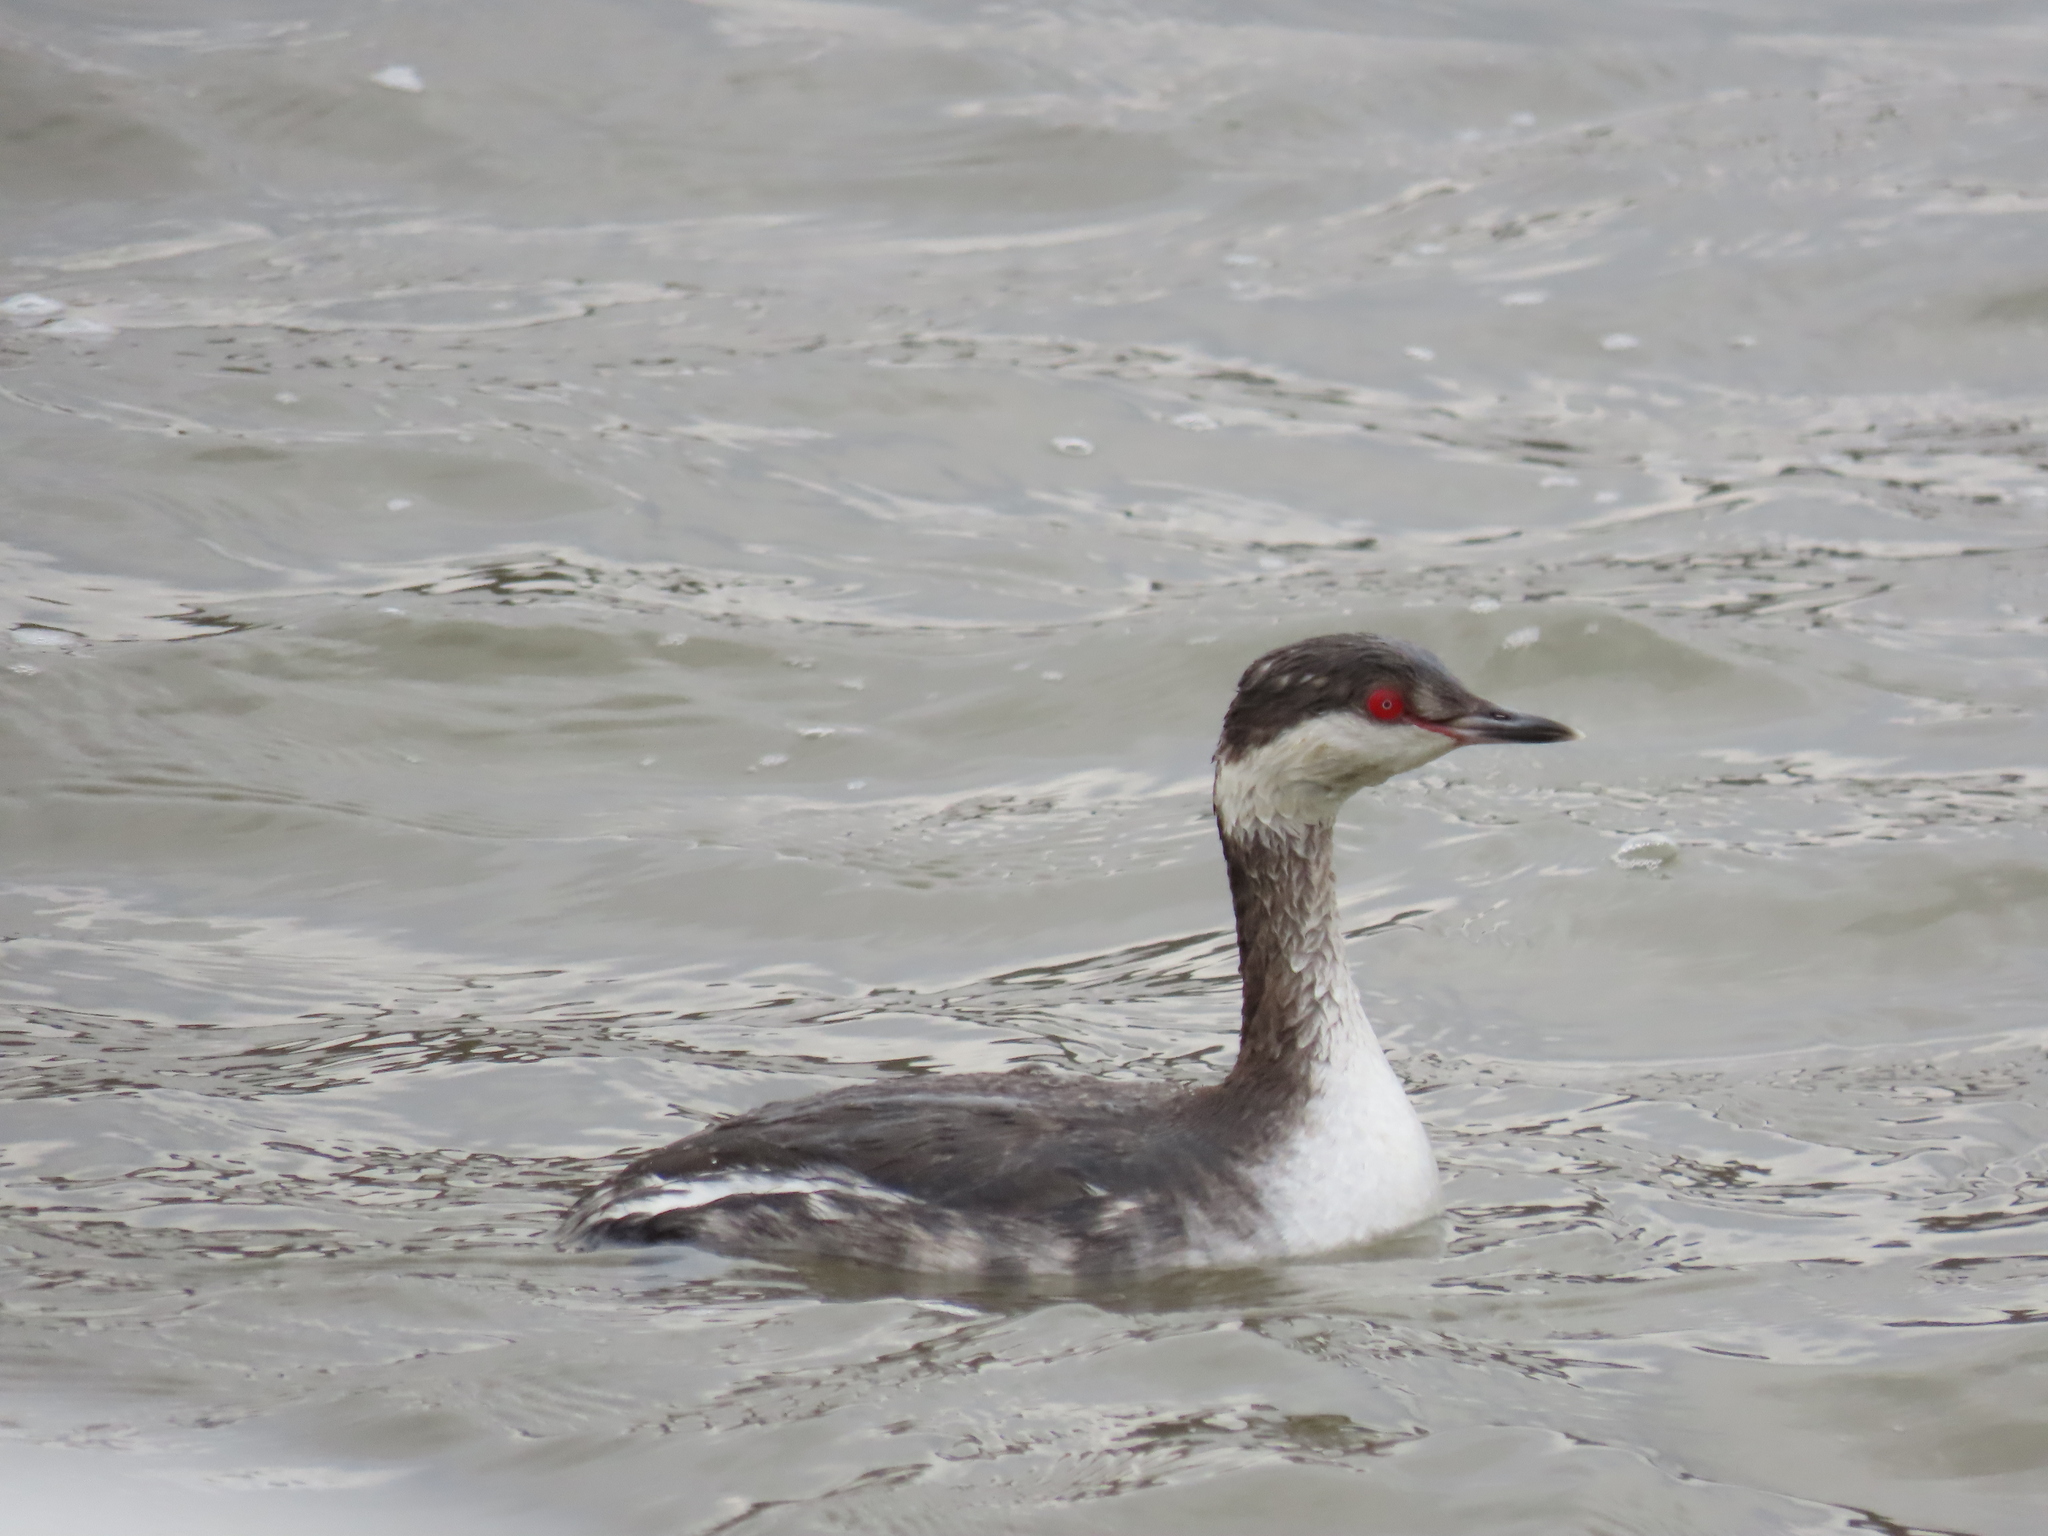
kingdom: Animalia
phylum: Chordata
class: Aves
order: Podicipediformes
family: Podicipedidae
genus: Podiceps
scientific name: Podiceps auritus
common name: Horned grebe
